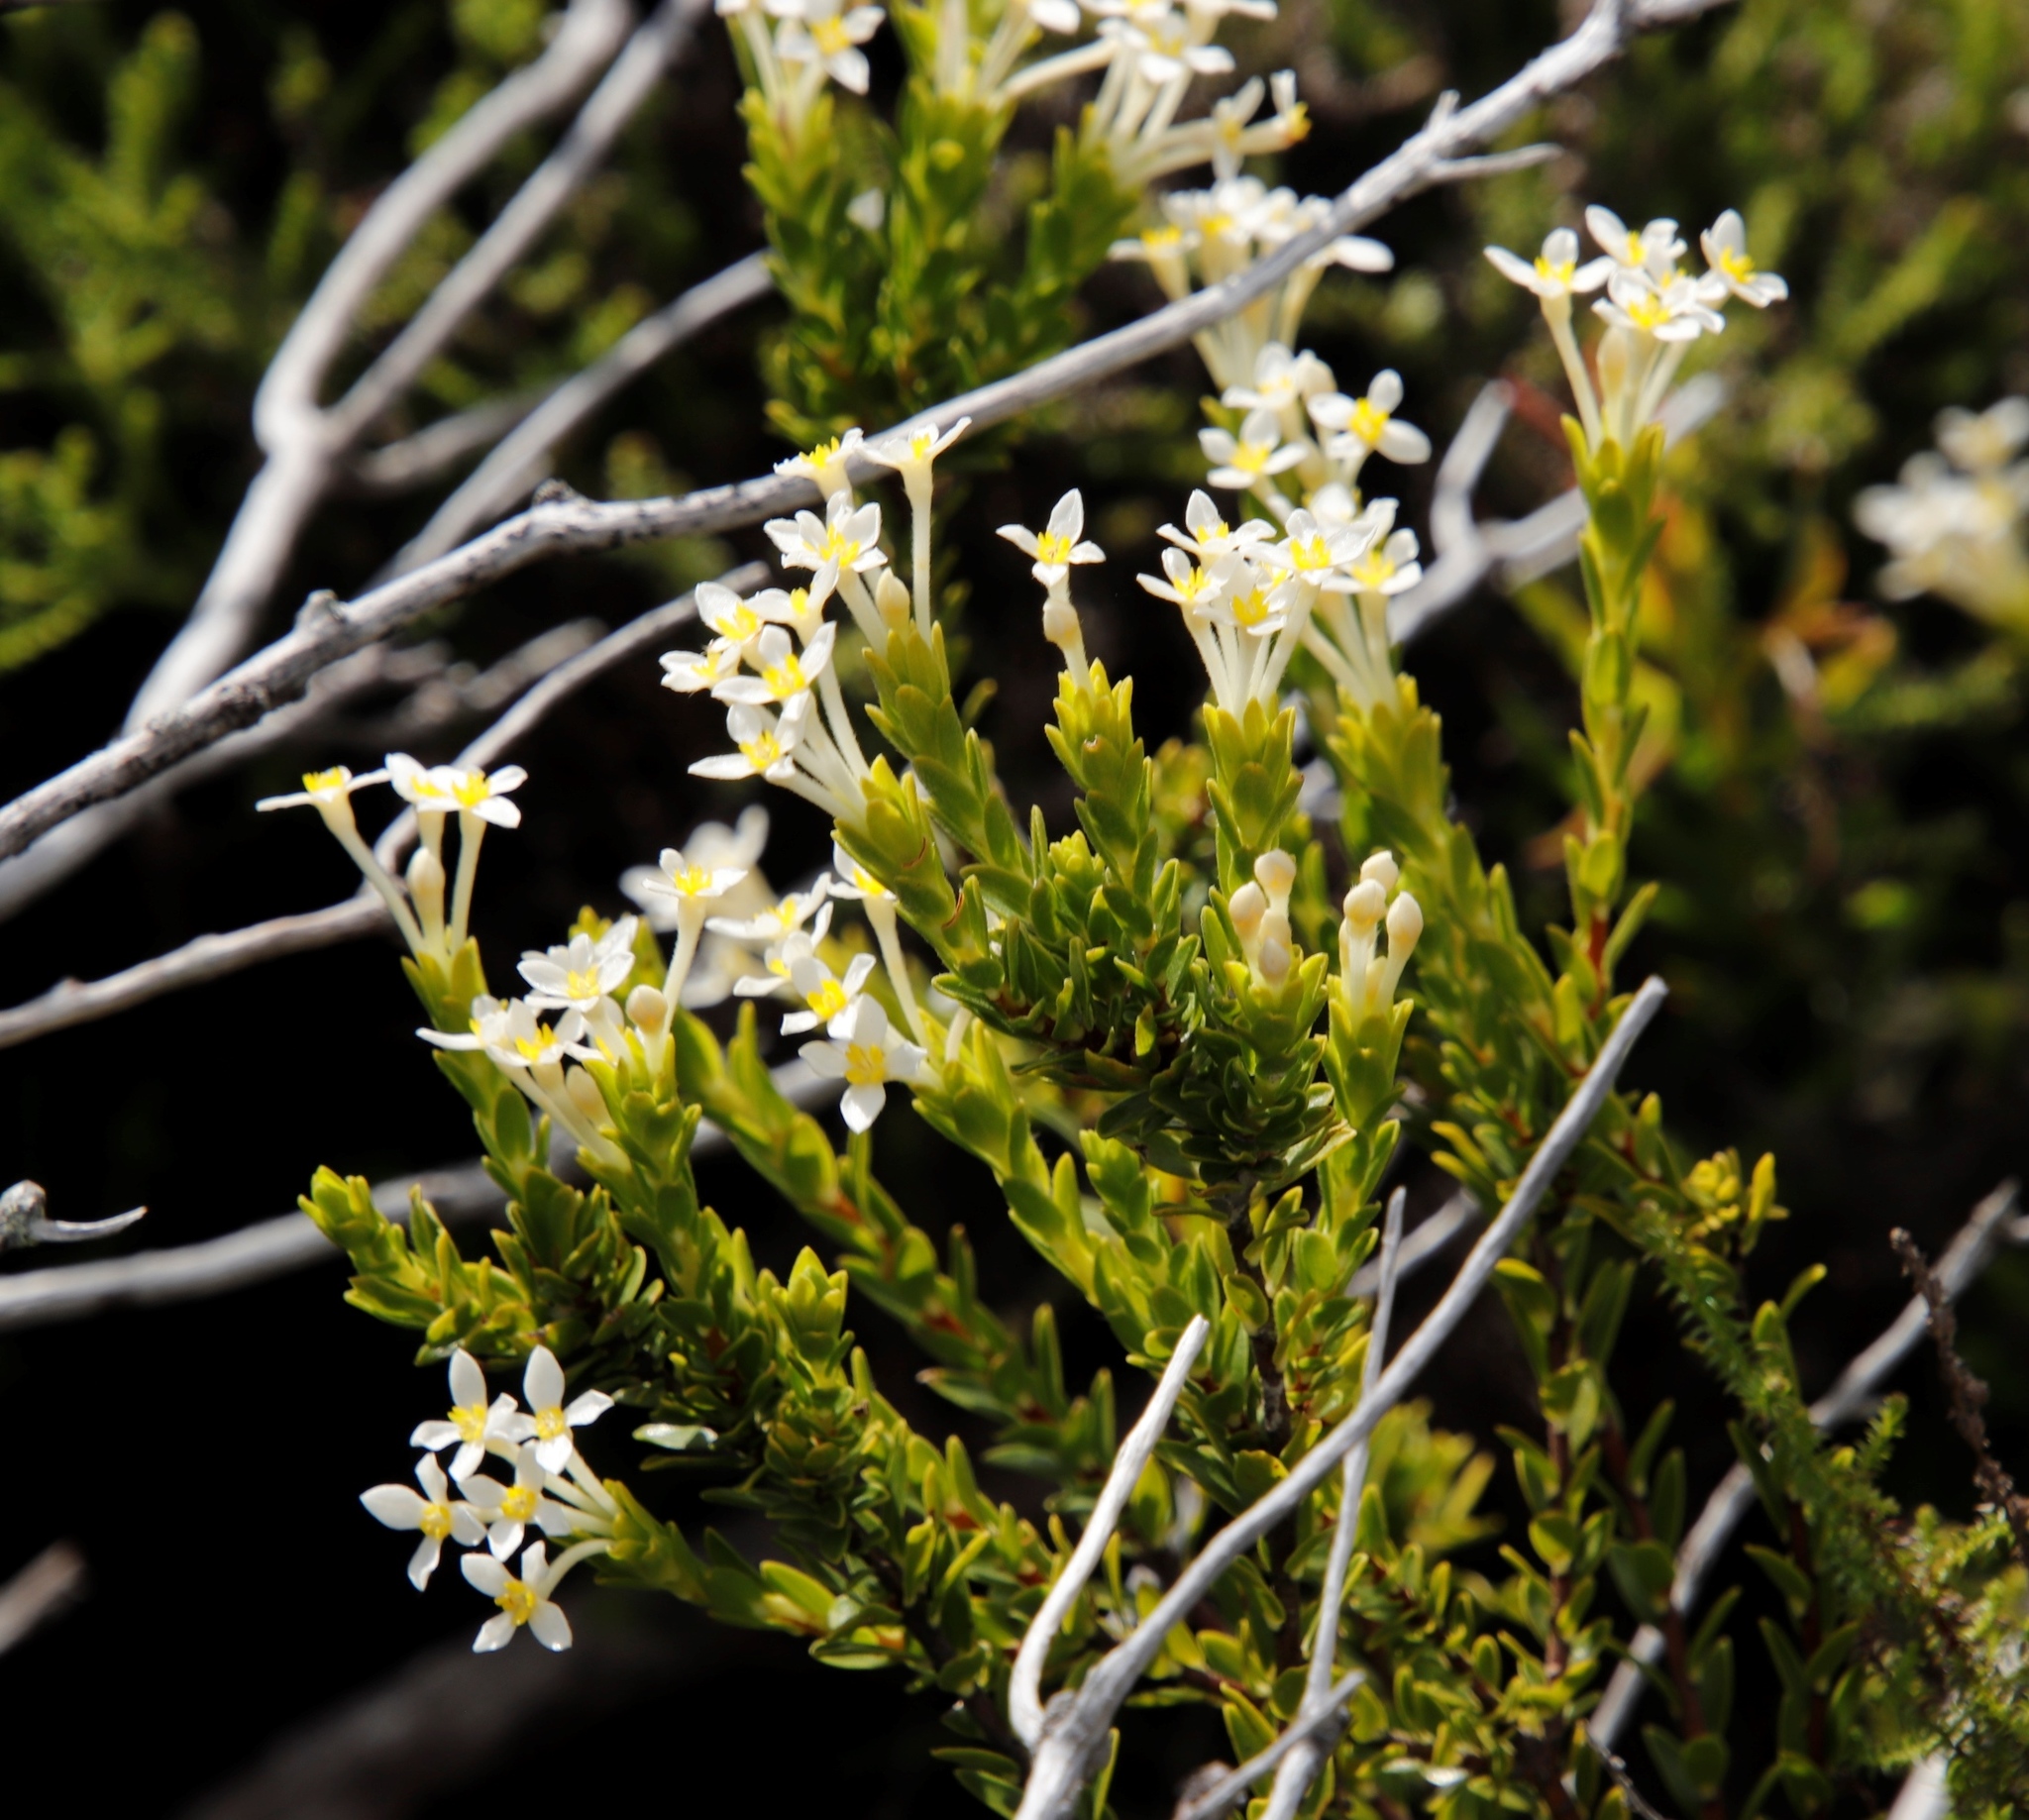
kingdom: Plantae
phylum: Tracheophyta
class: Magnoliopsida
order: Malvales
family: Thymelaeaceae
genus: Gnidia
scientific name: Gnidia tomentosa
